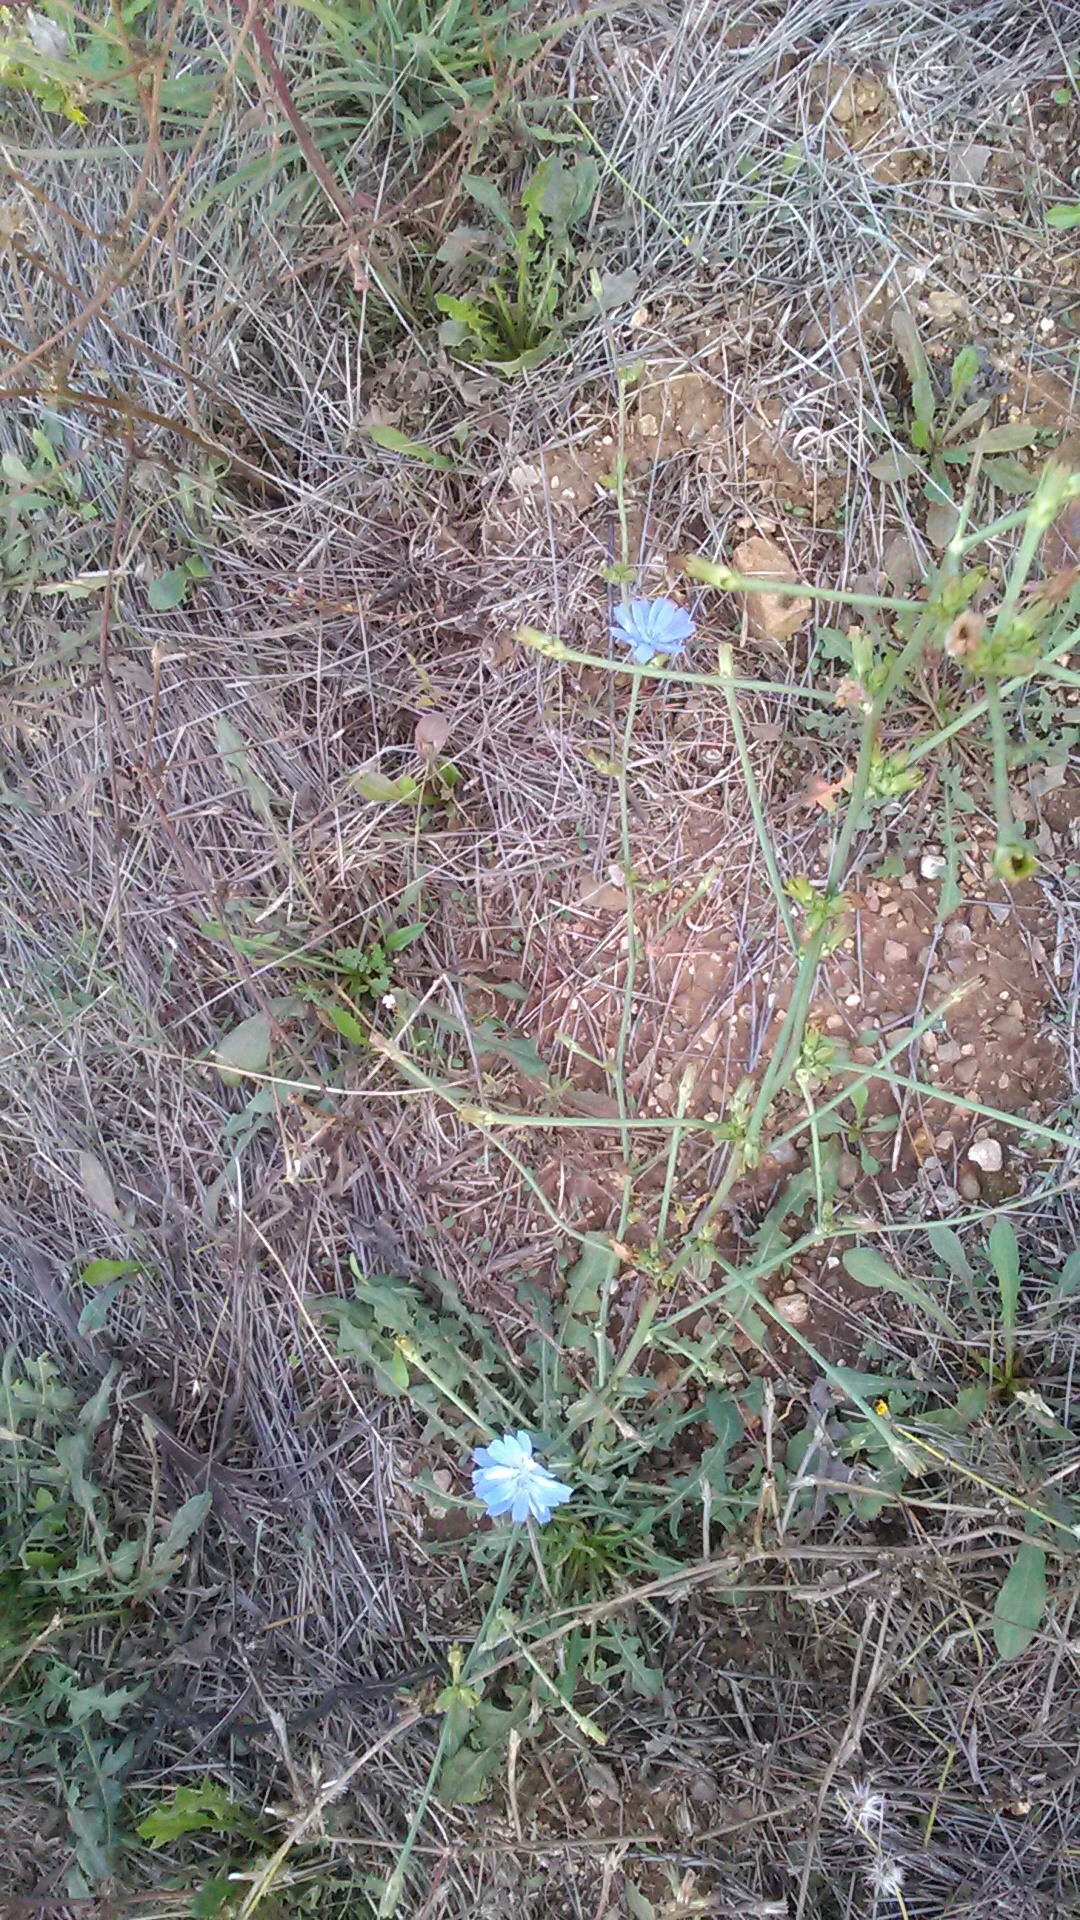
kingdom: Plantae
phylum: Tracheophyta
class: Magnoliopsida
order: Asterales
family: Asteraceae
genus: Cichorium
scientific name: Cichorium intybus
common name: Chicory
